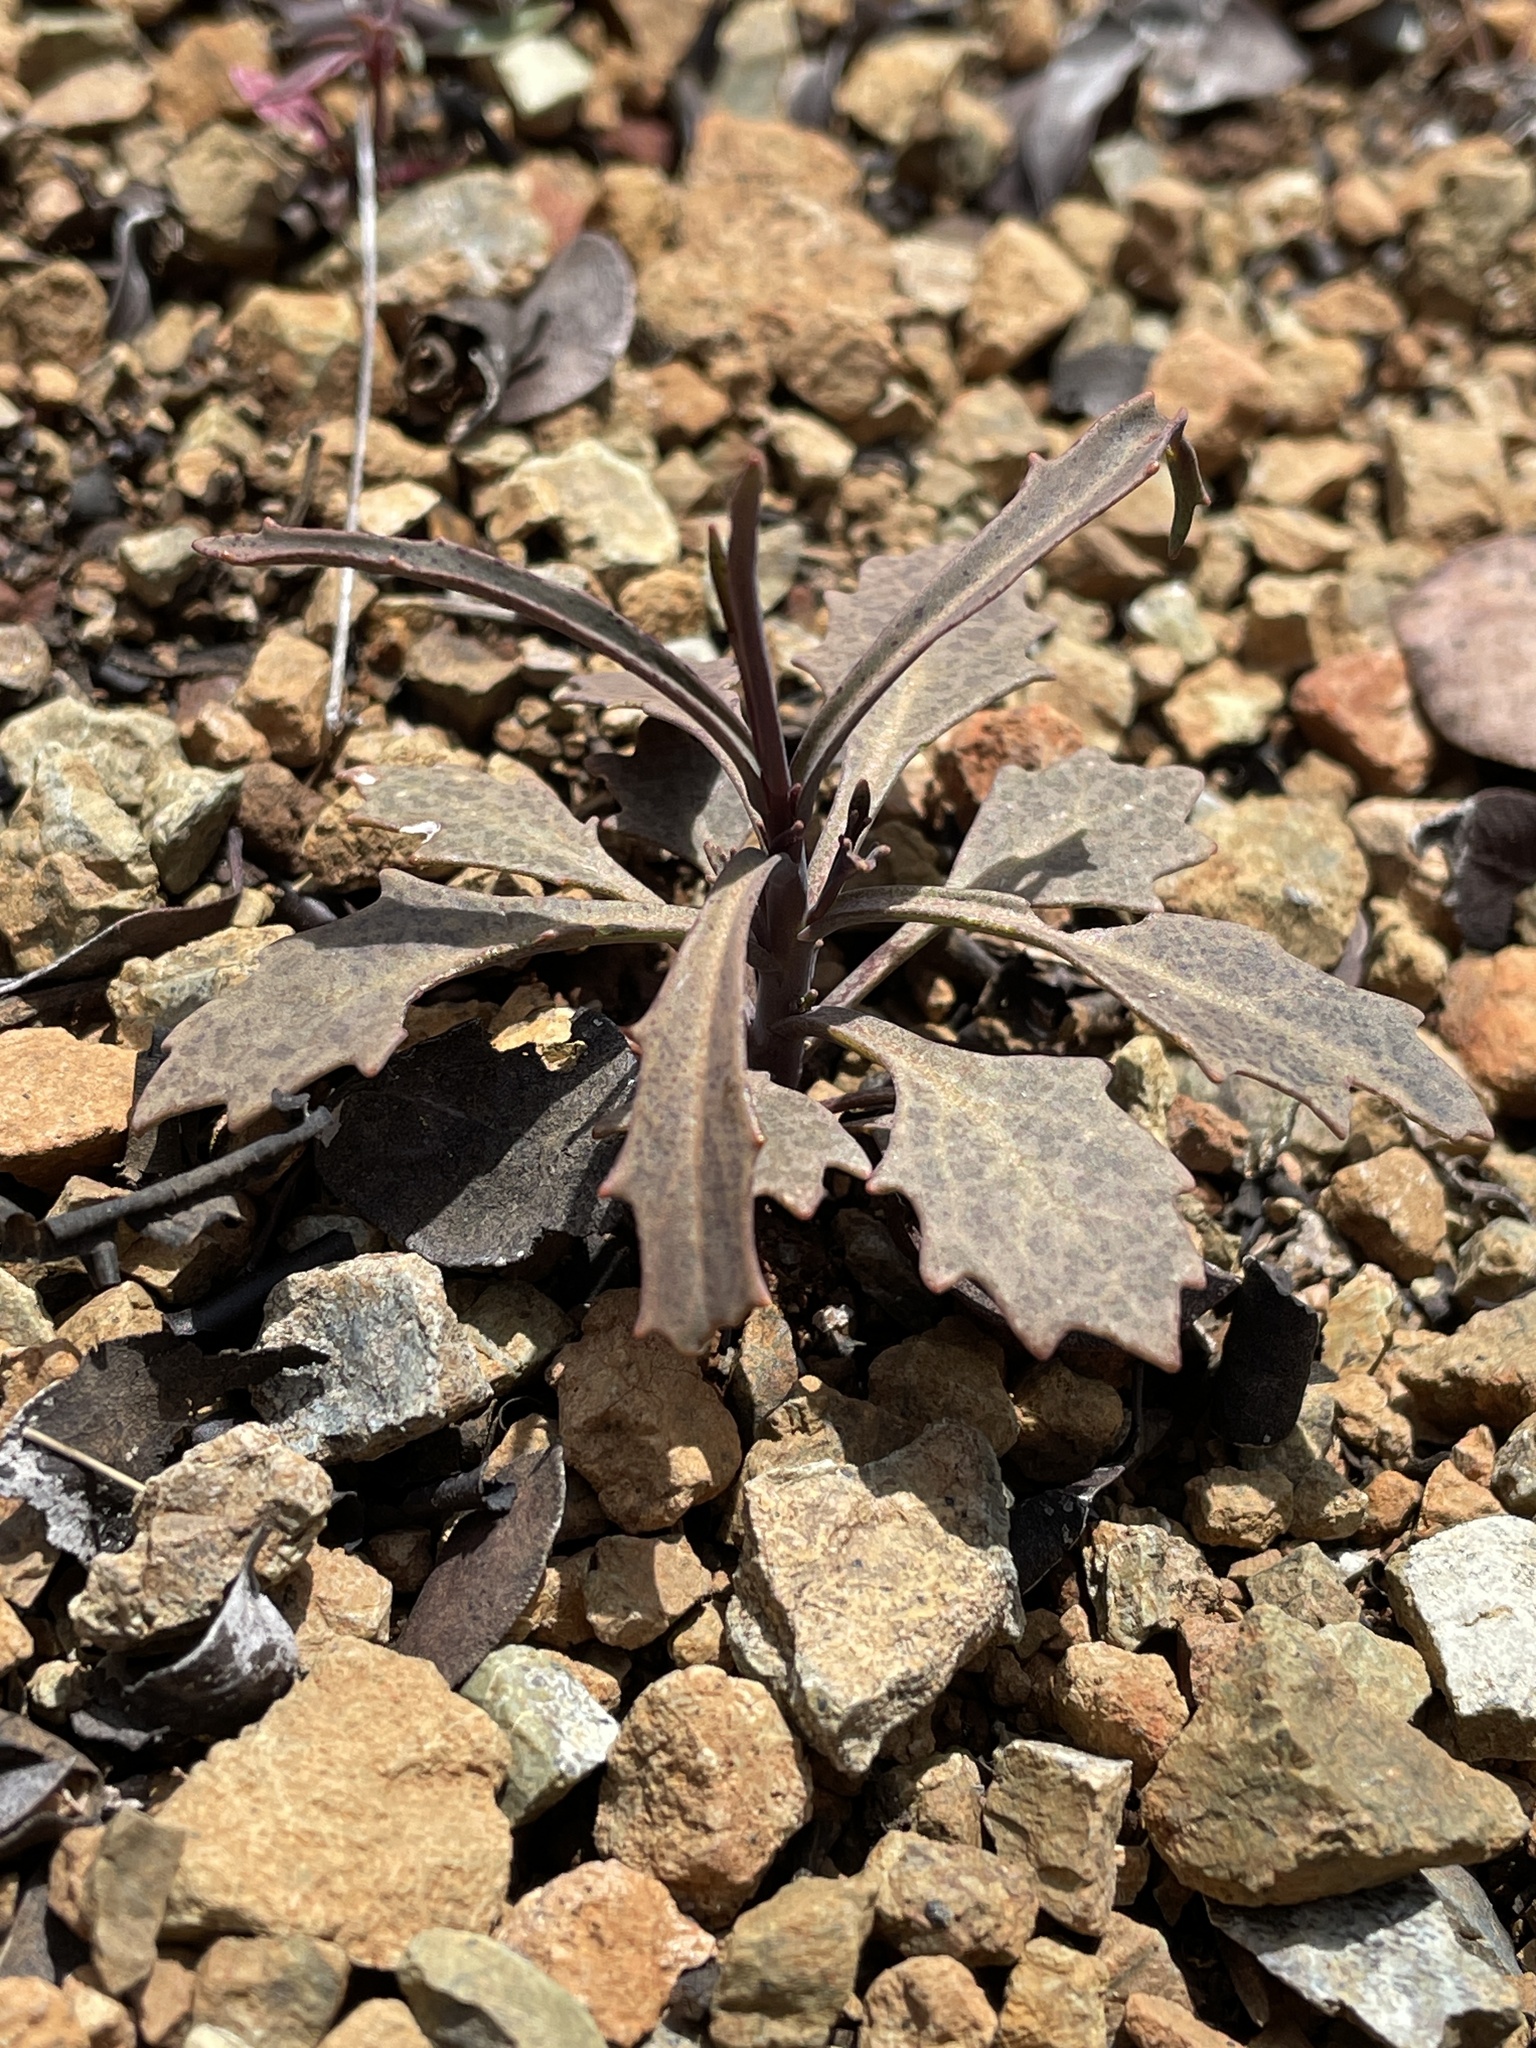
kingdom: Plantae
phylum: Tracheophyta
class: Magnoliopsida
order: Brassicales
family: Brassicaceae
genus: Streptanthus
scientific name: Streptanthus barbiger
